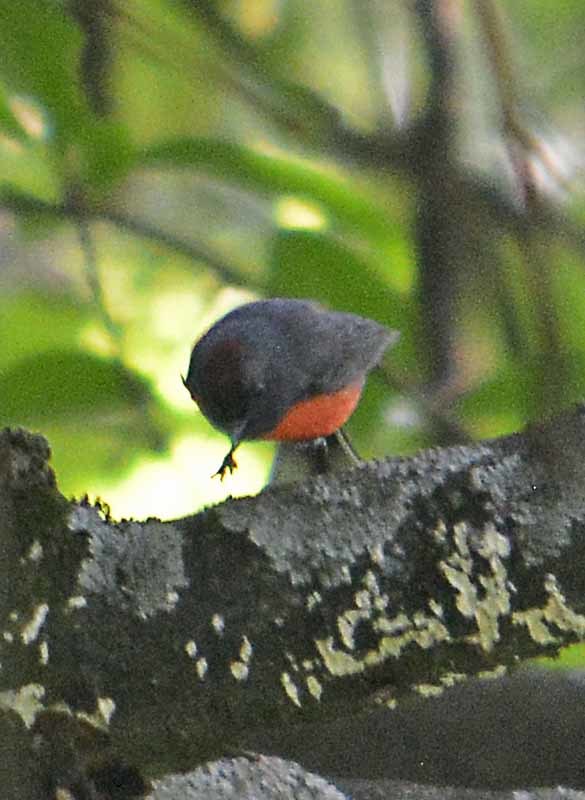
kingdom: Animalia
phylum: Chordata
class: Aves
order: Passeriformes
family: Parulidae
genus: Myioborus
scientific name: Myioborus miniatus
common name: Slate-throated redstart
